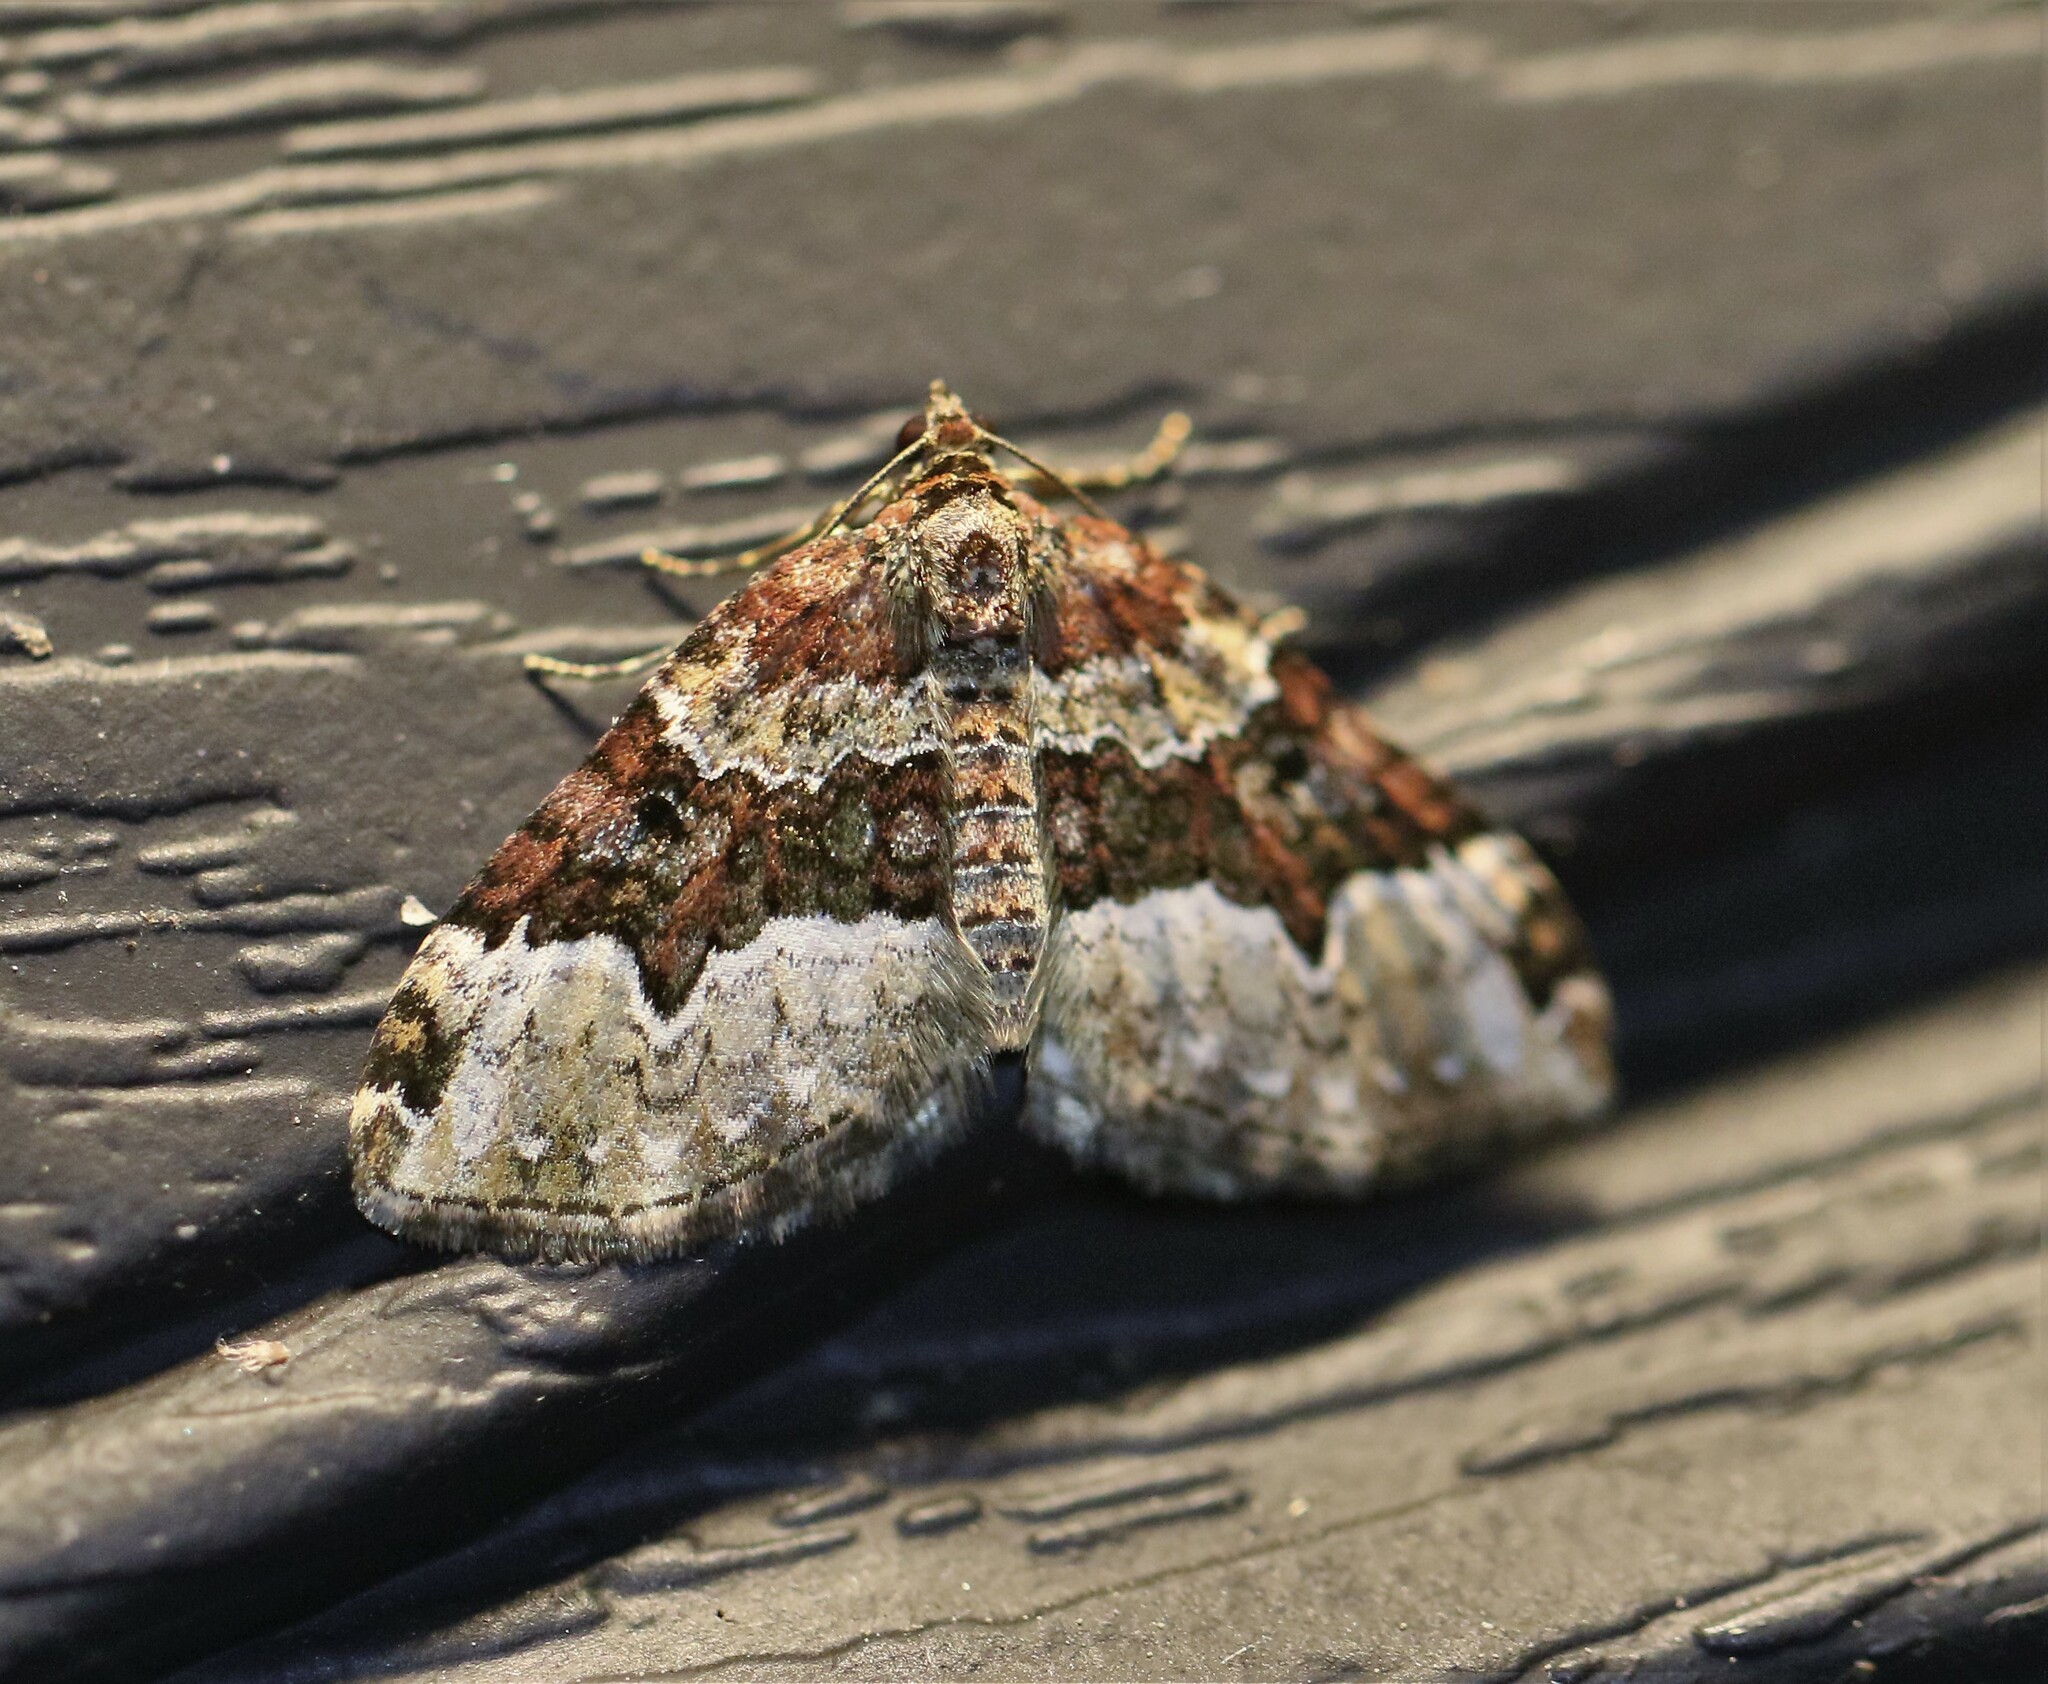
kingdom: Animalia
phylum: Arthropoda
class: Insecta
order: Lepidoptera
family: Geometridae
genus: Euphyia
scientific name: Euphyia intermediata
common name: Sharp-angled carpet
